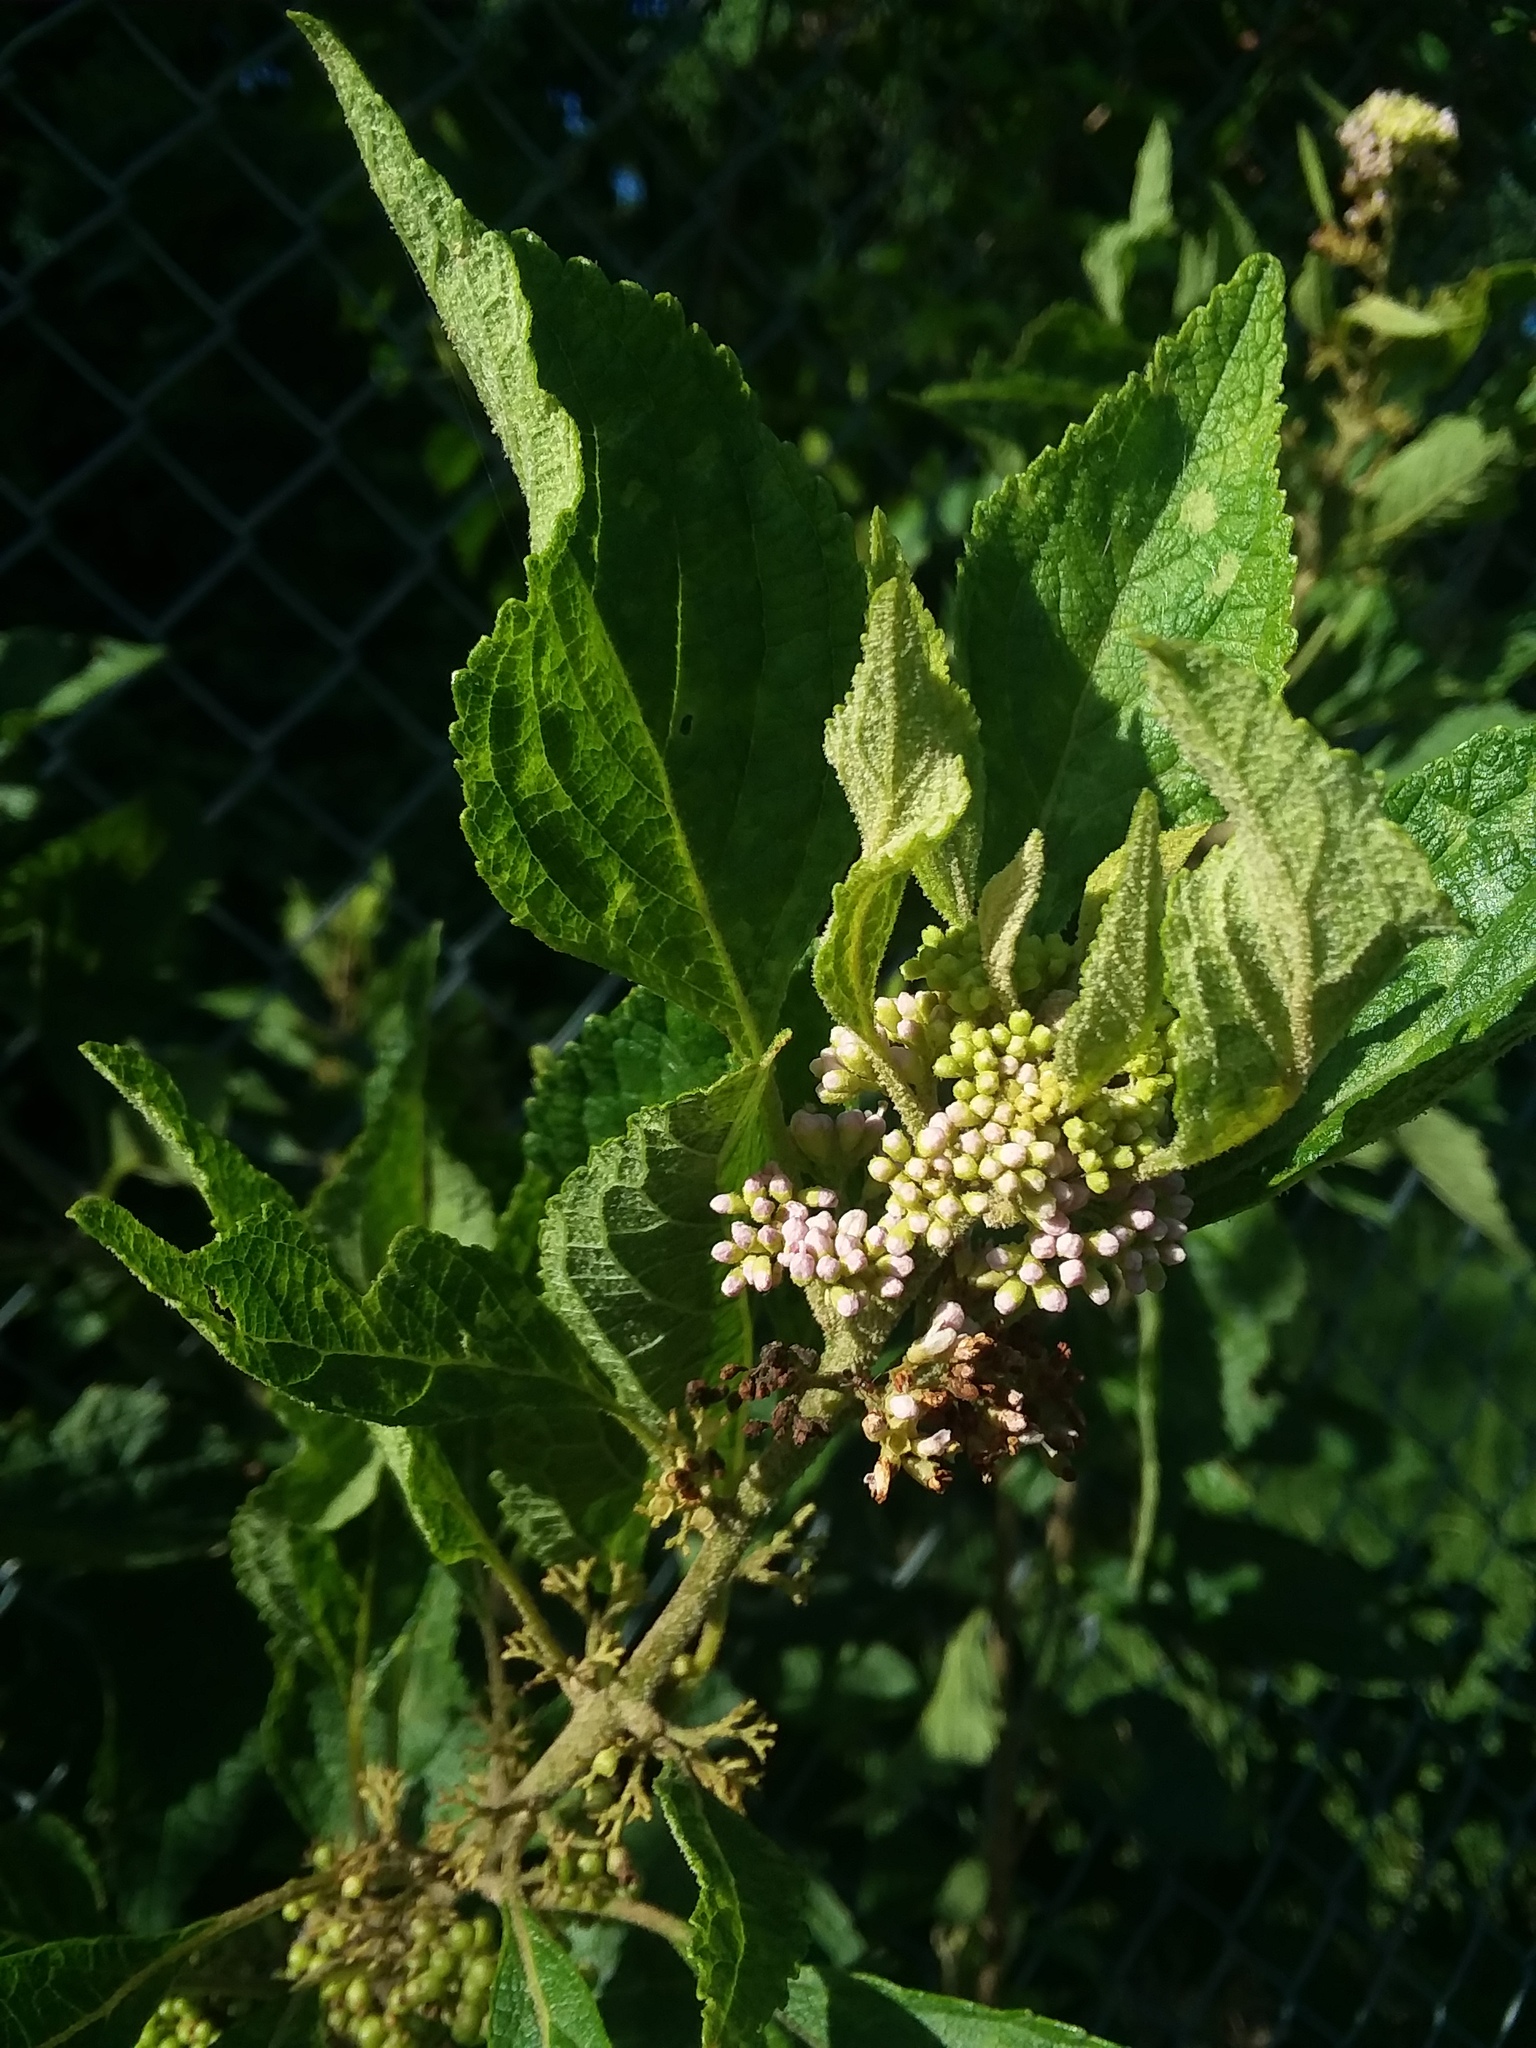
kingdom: Plantae
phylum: Tracheophyta
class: Magnoliopsida
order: Lamiales
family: Lamiaceae
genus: Callicarpa
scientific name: Callicarpa americana
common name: American beautyberry
